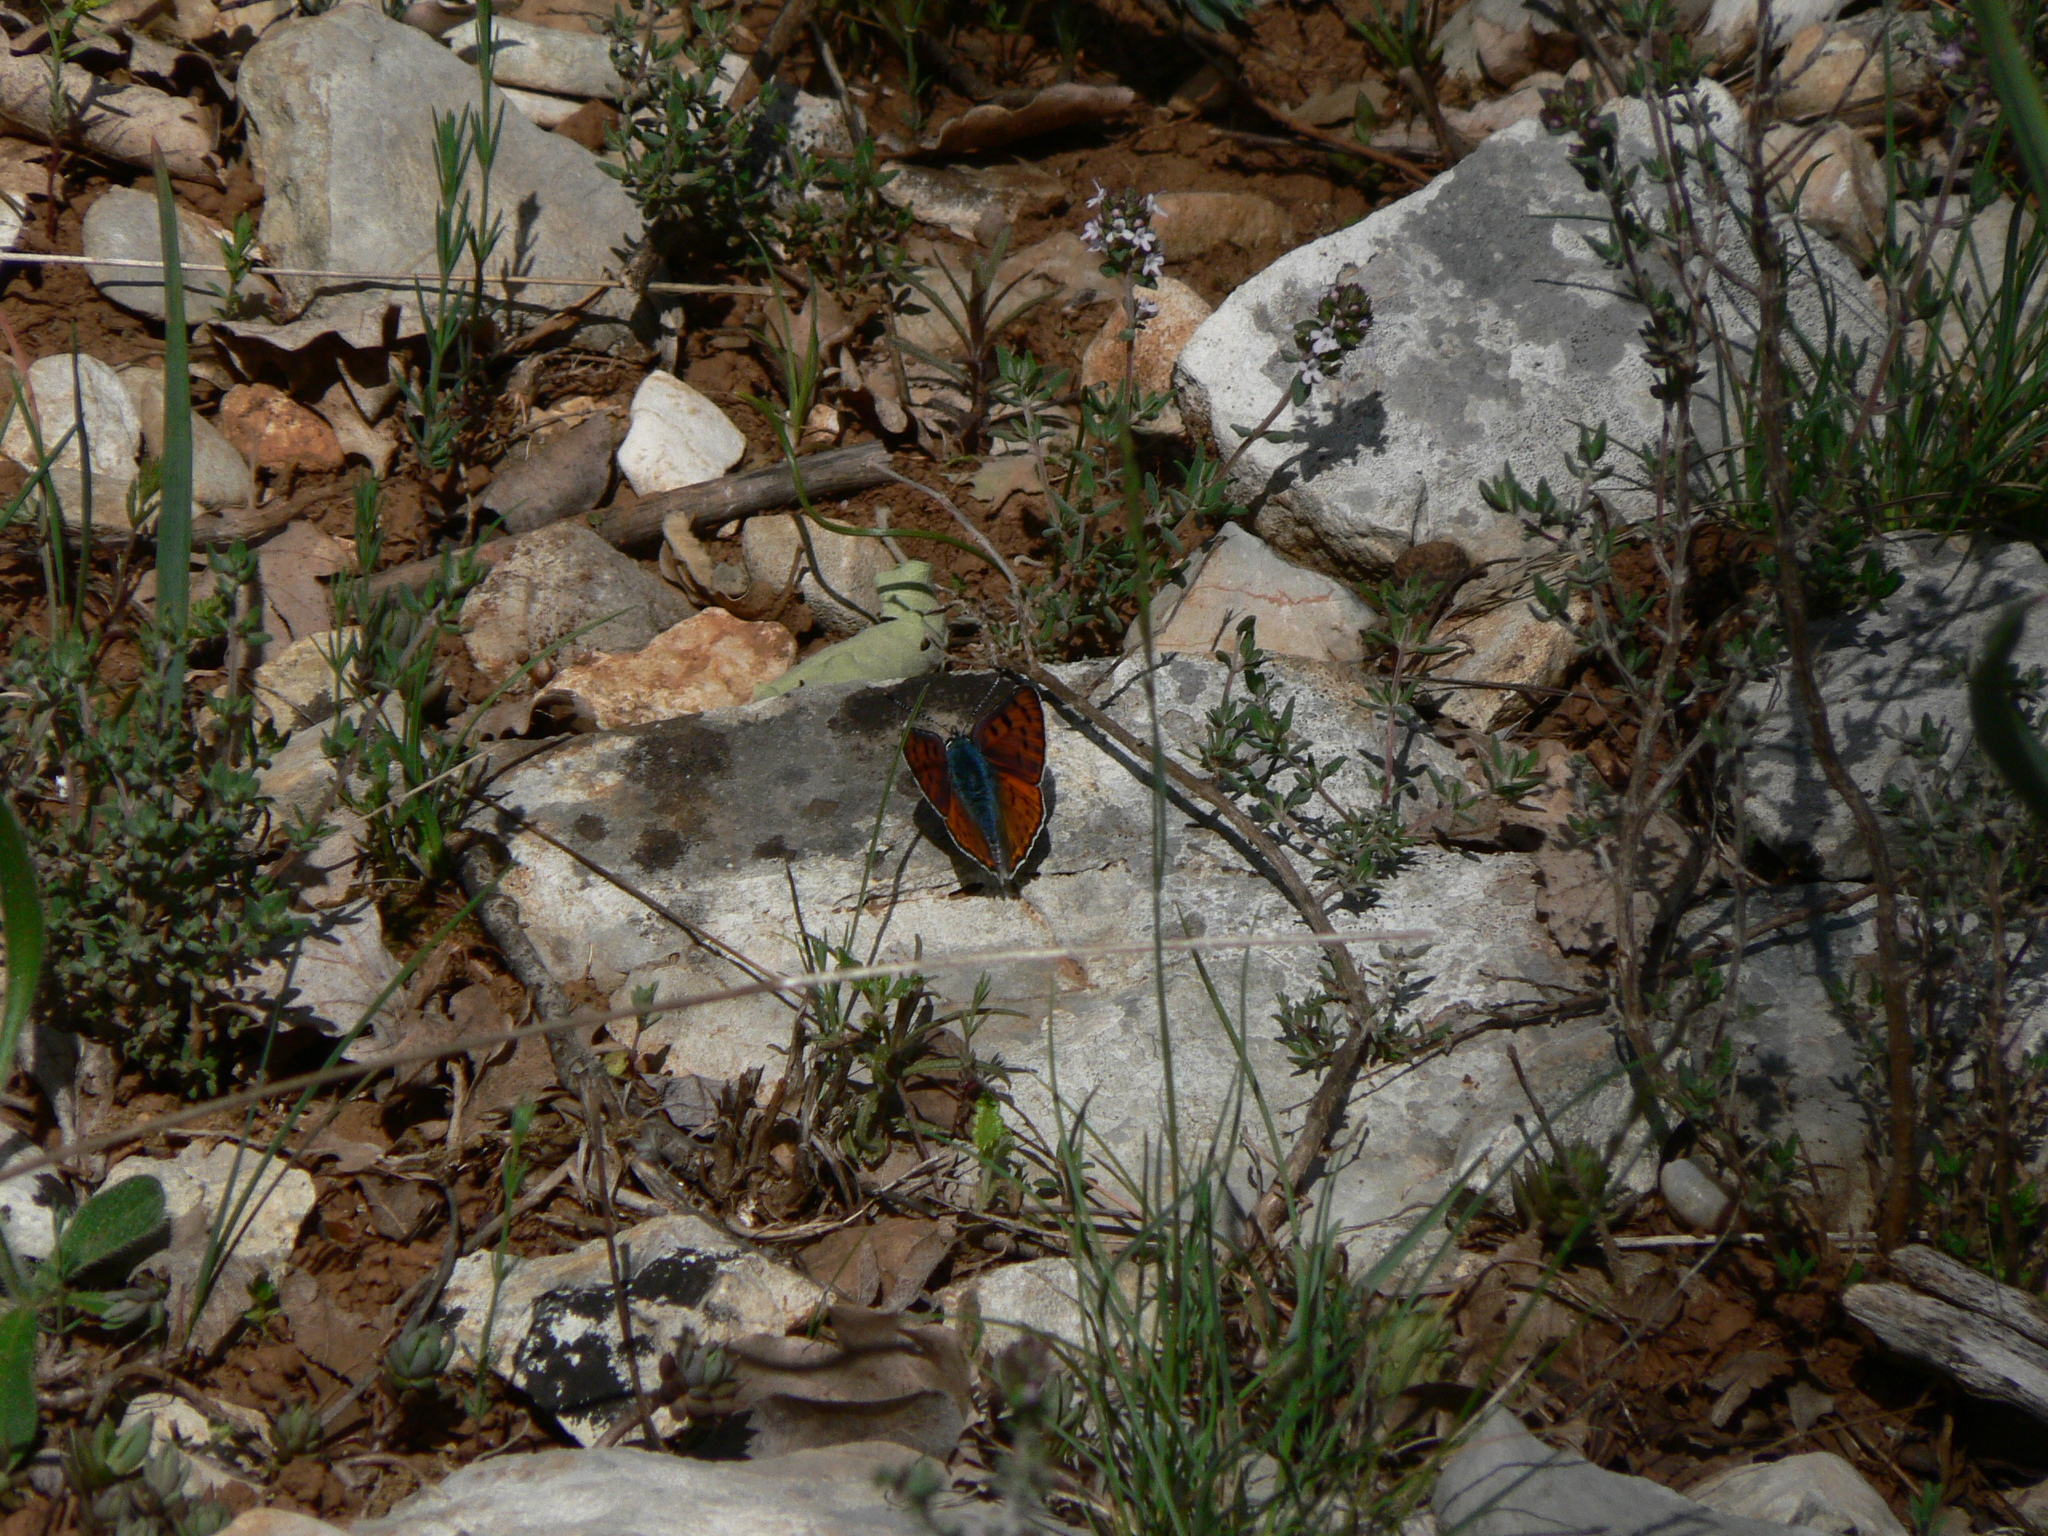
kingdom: Animalia
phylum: Arthropoda
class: Insecta
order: Lepidoptera
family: Lycaenidae
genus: Lycaena
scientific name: Lycaena alciphron
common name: Purple-shot copper
